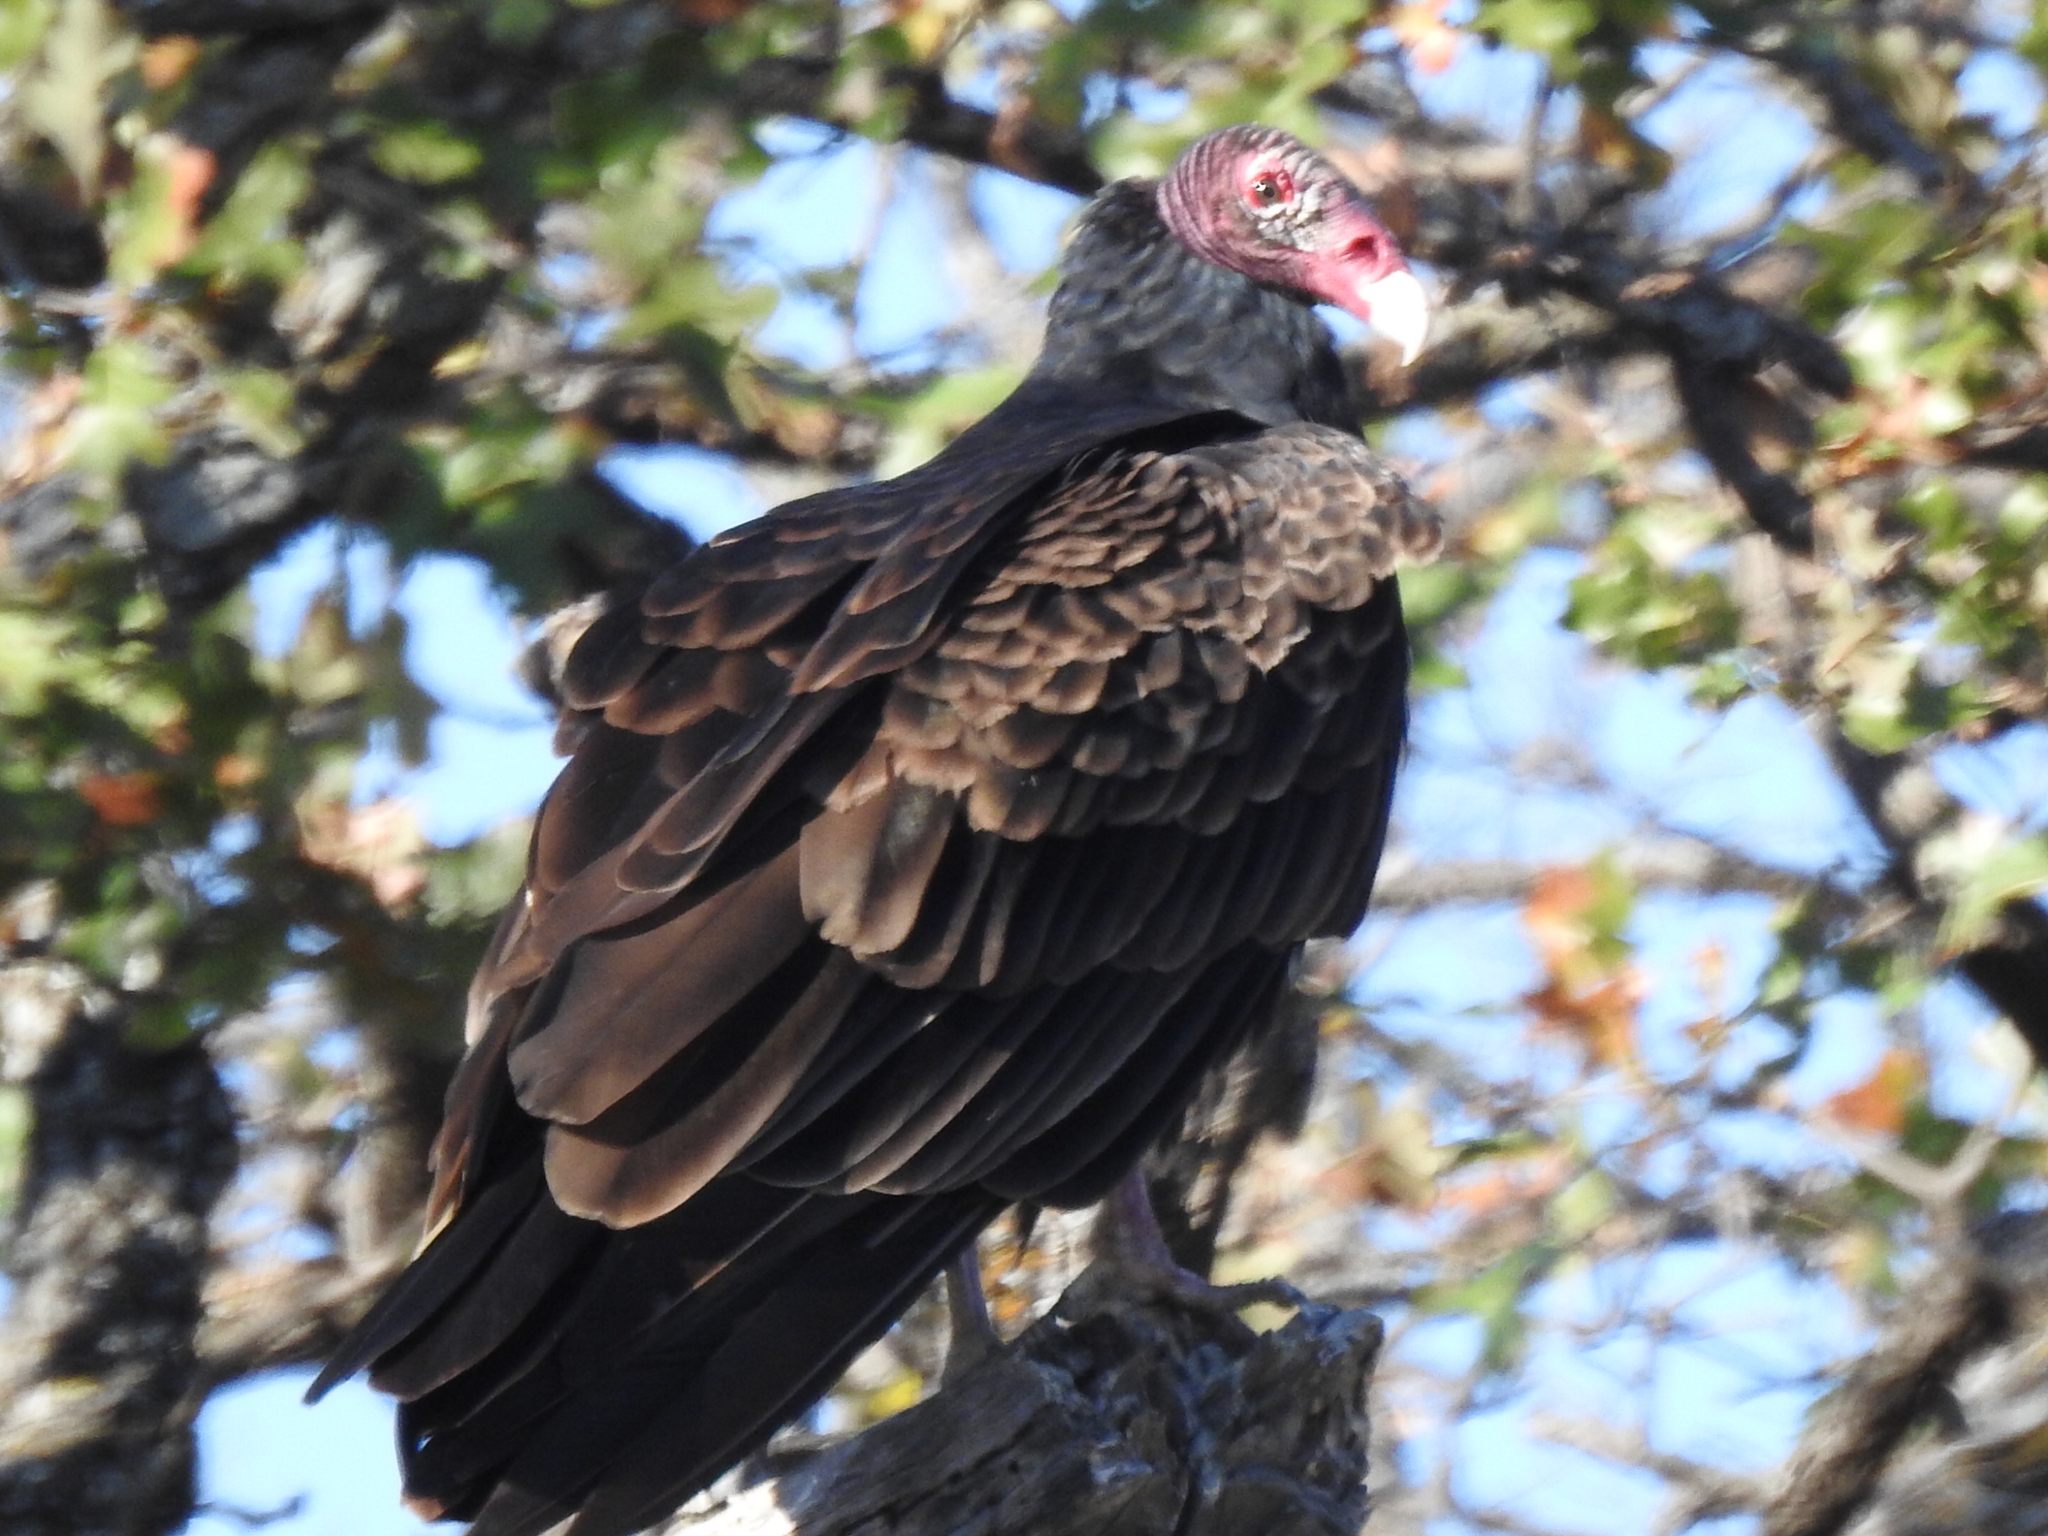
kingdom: Animalia
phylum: Chordata
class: Aves
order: Accipitriformes
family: Cathartidae
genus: Cathartes
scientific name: Cathartes aura
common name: Turkey vulture
